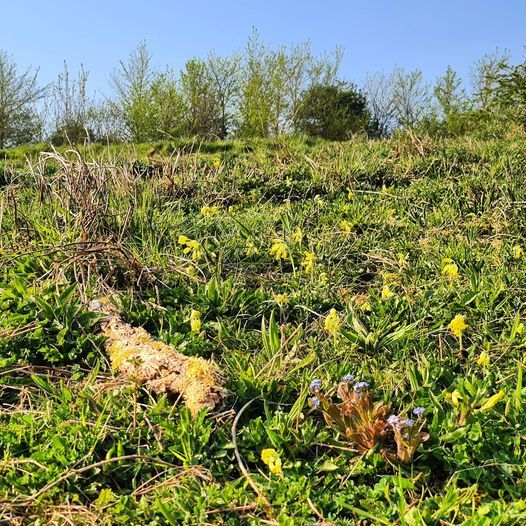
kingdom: Plantae
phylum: Tracheophyta
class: Magnoliopsida
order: Ericales
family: Primulaceae
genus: Primula
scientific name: Primula veris
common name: Cowslip
